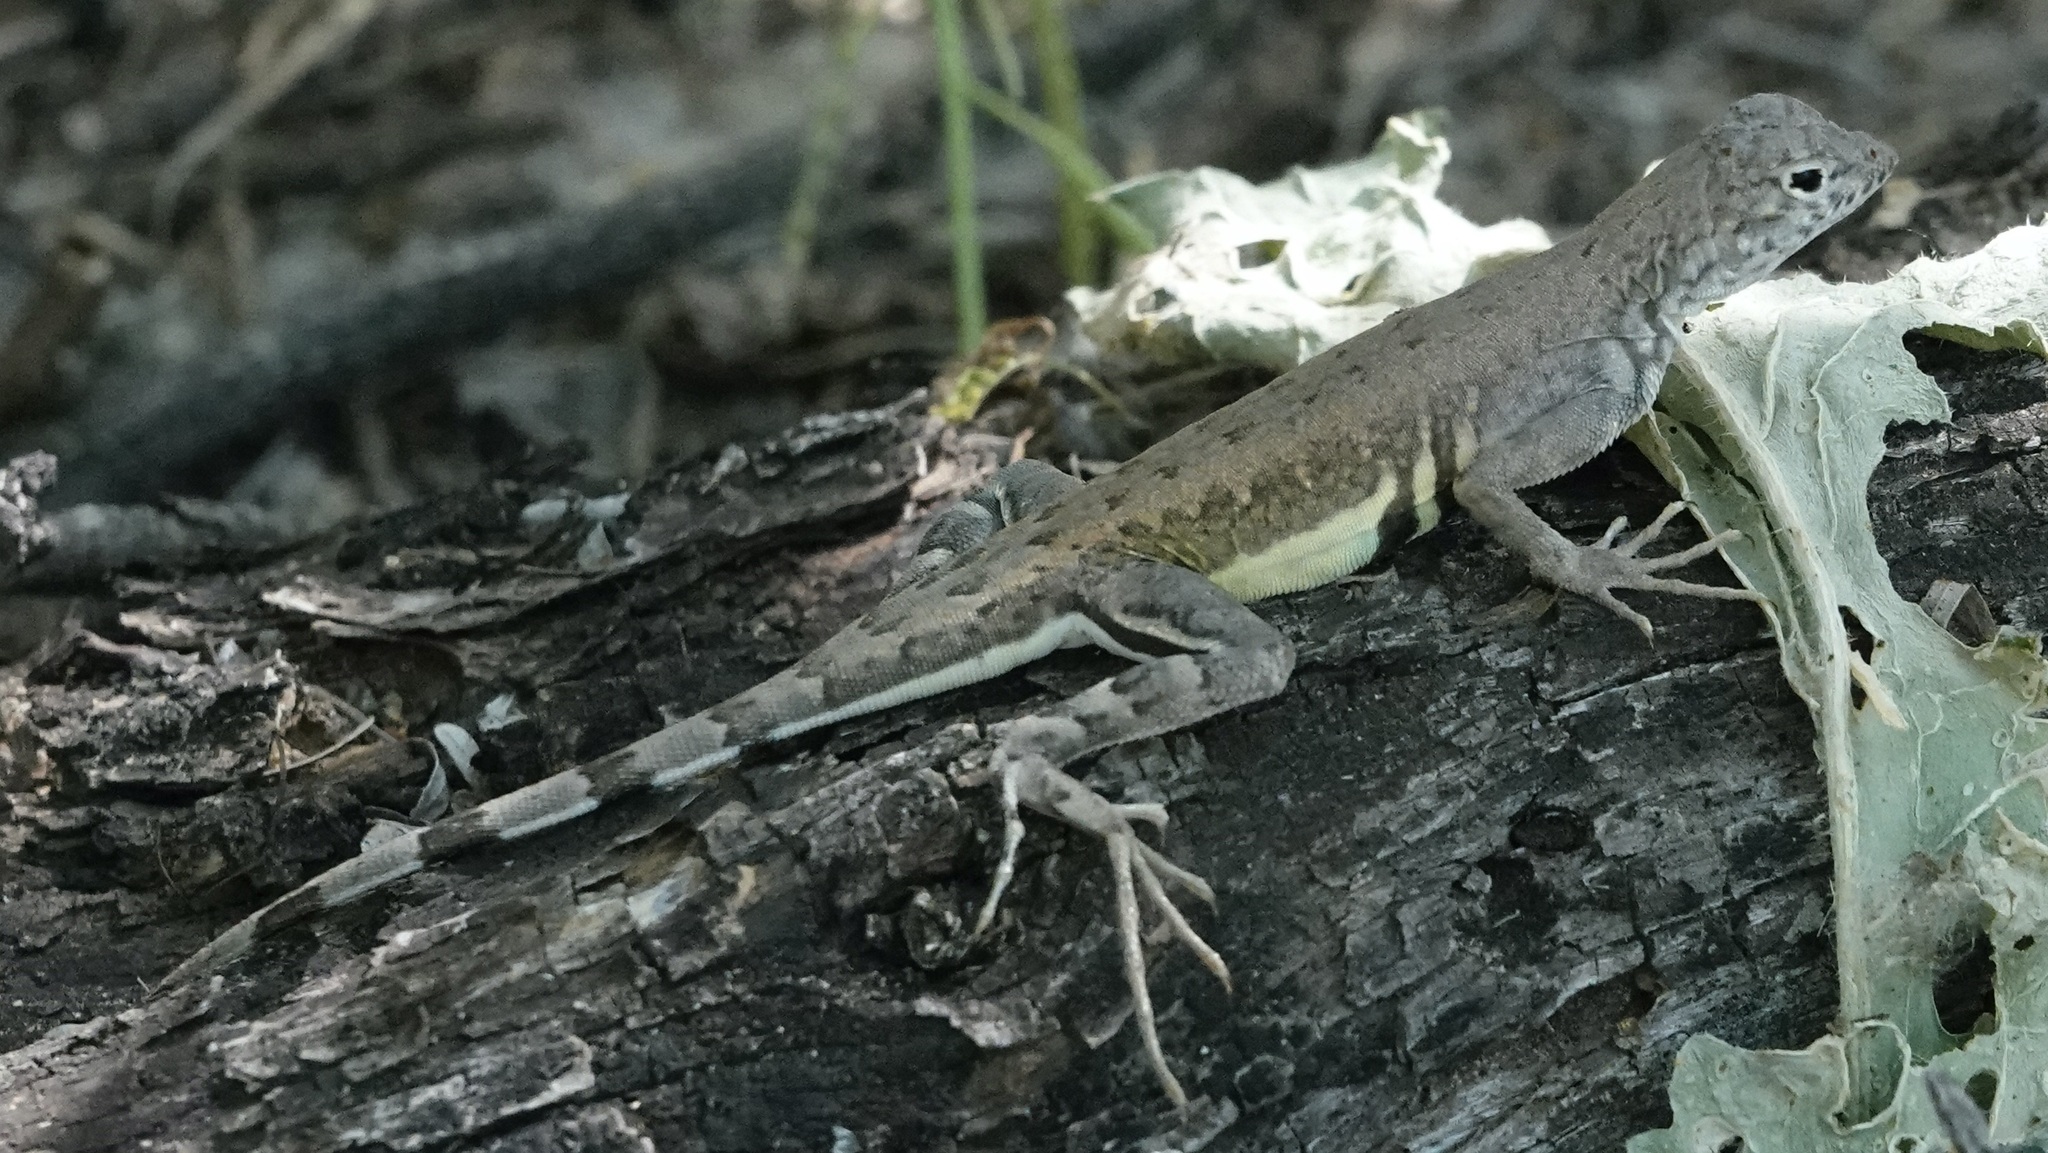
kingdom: Animalia
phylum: Chordata
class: Squamata
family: Phrynosomatidae
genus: Callisaurus
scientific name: Callisaurus draconoides
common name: Zebra-tailed lizard
